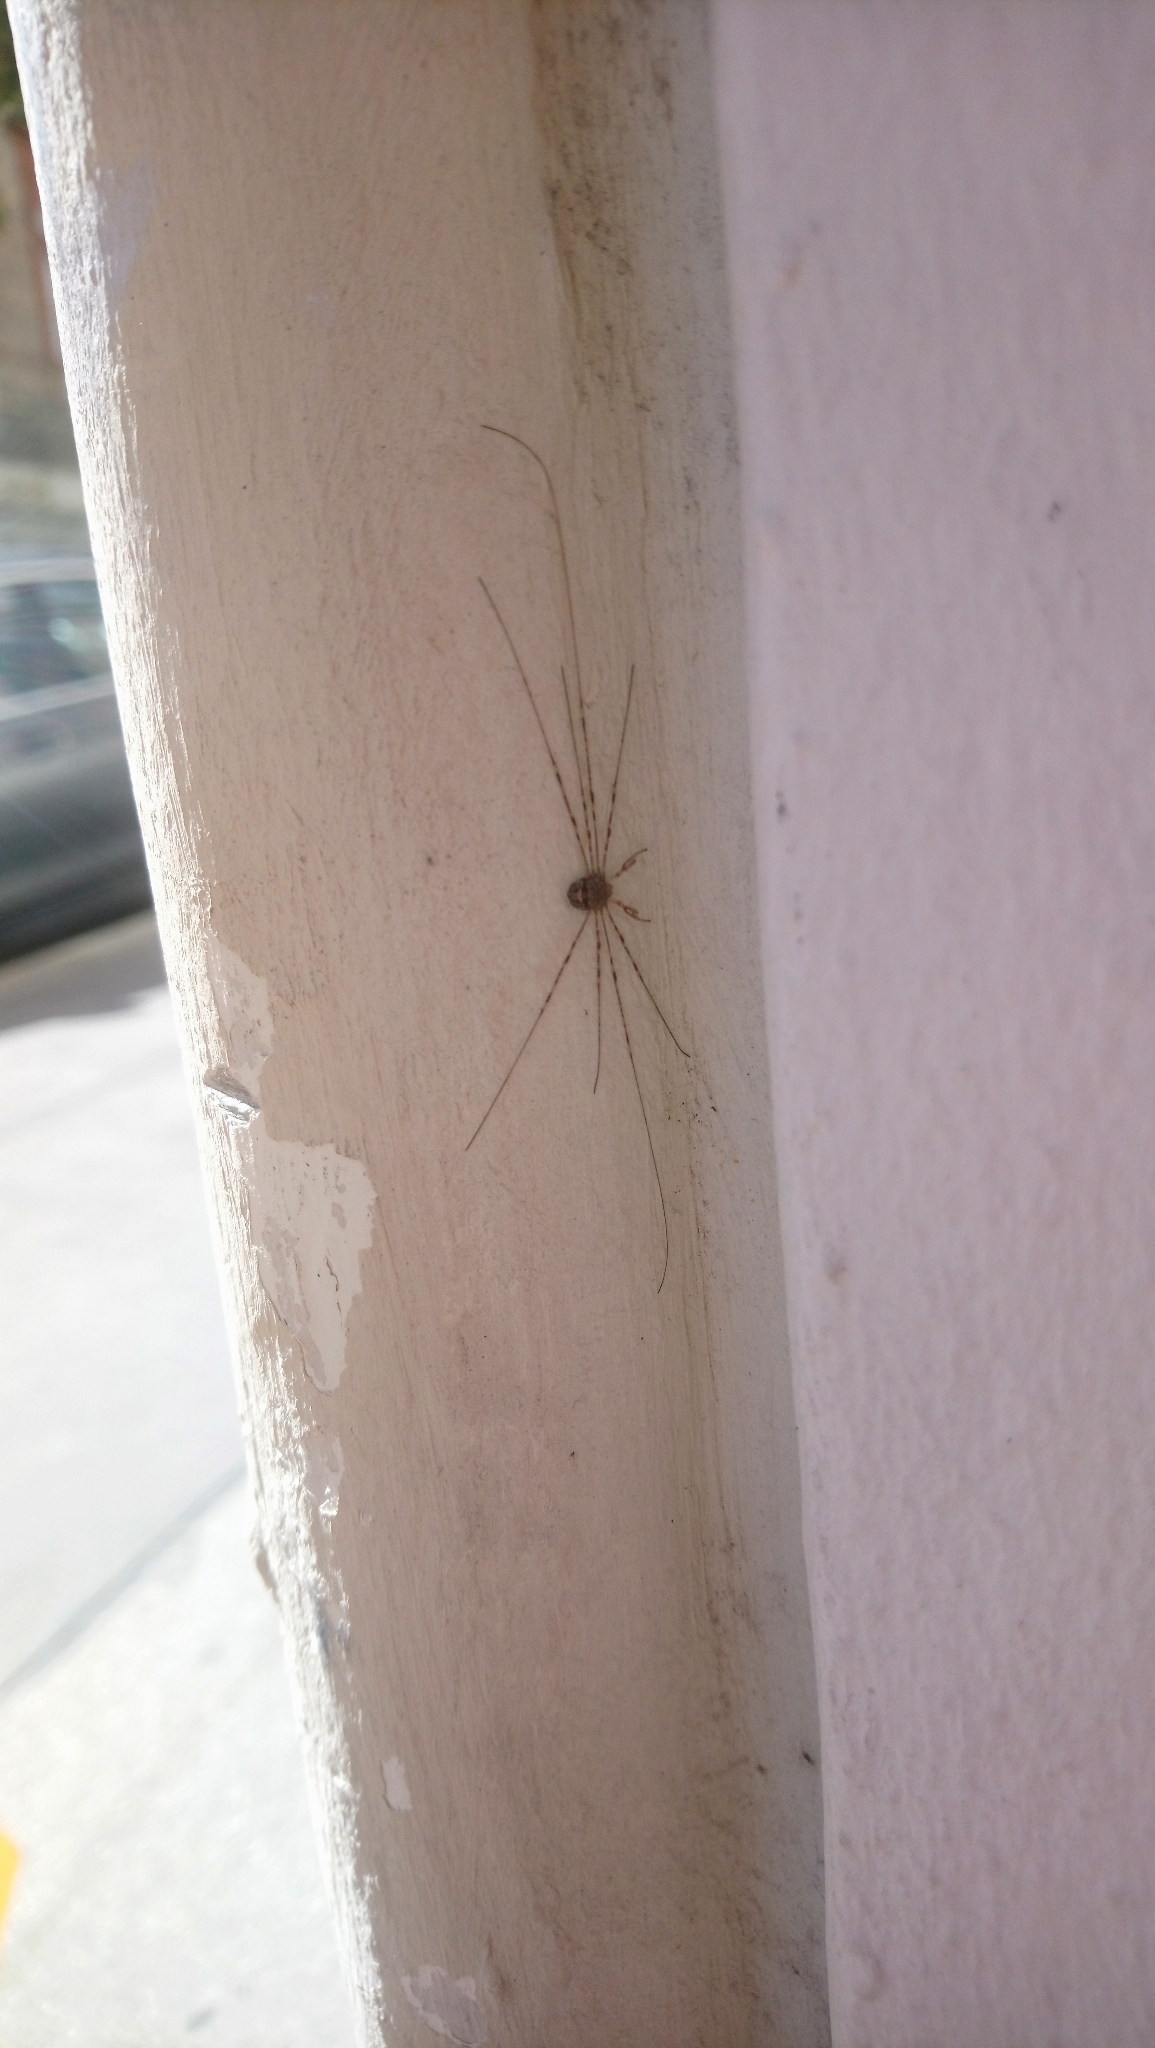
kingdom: Animalia
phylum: Arthropoda
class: Arachnida
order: Opiliones
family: Phalangiidae
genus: Dicranopalpus
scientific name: Dicranopalpus ramosus
